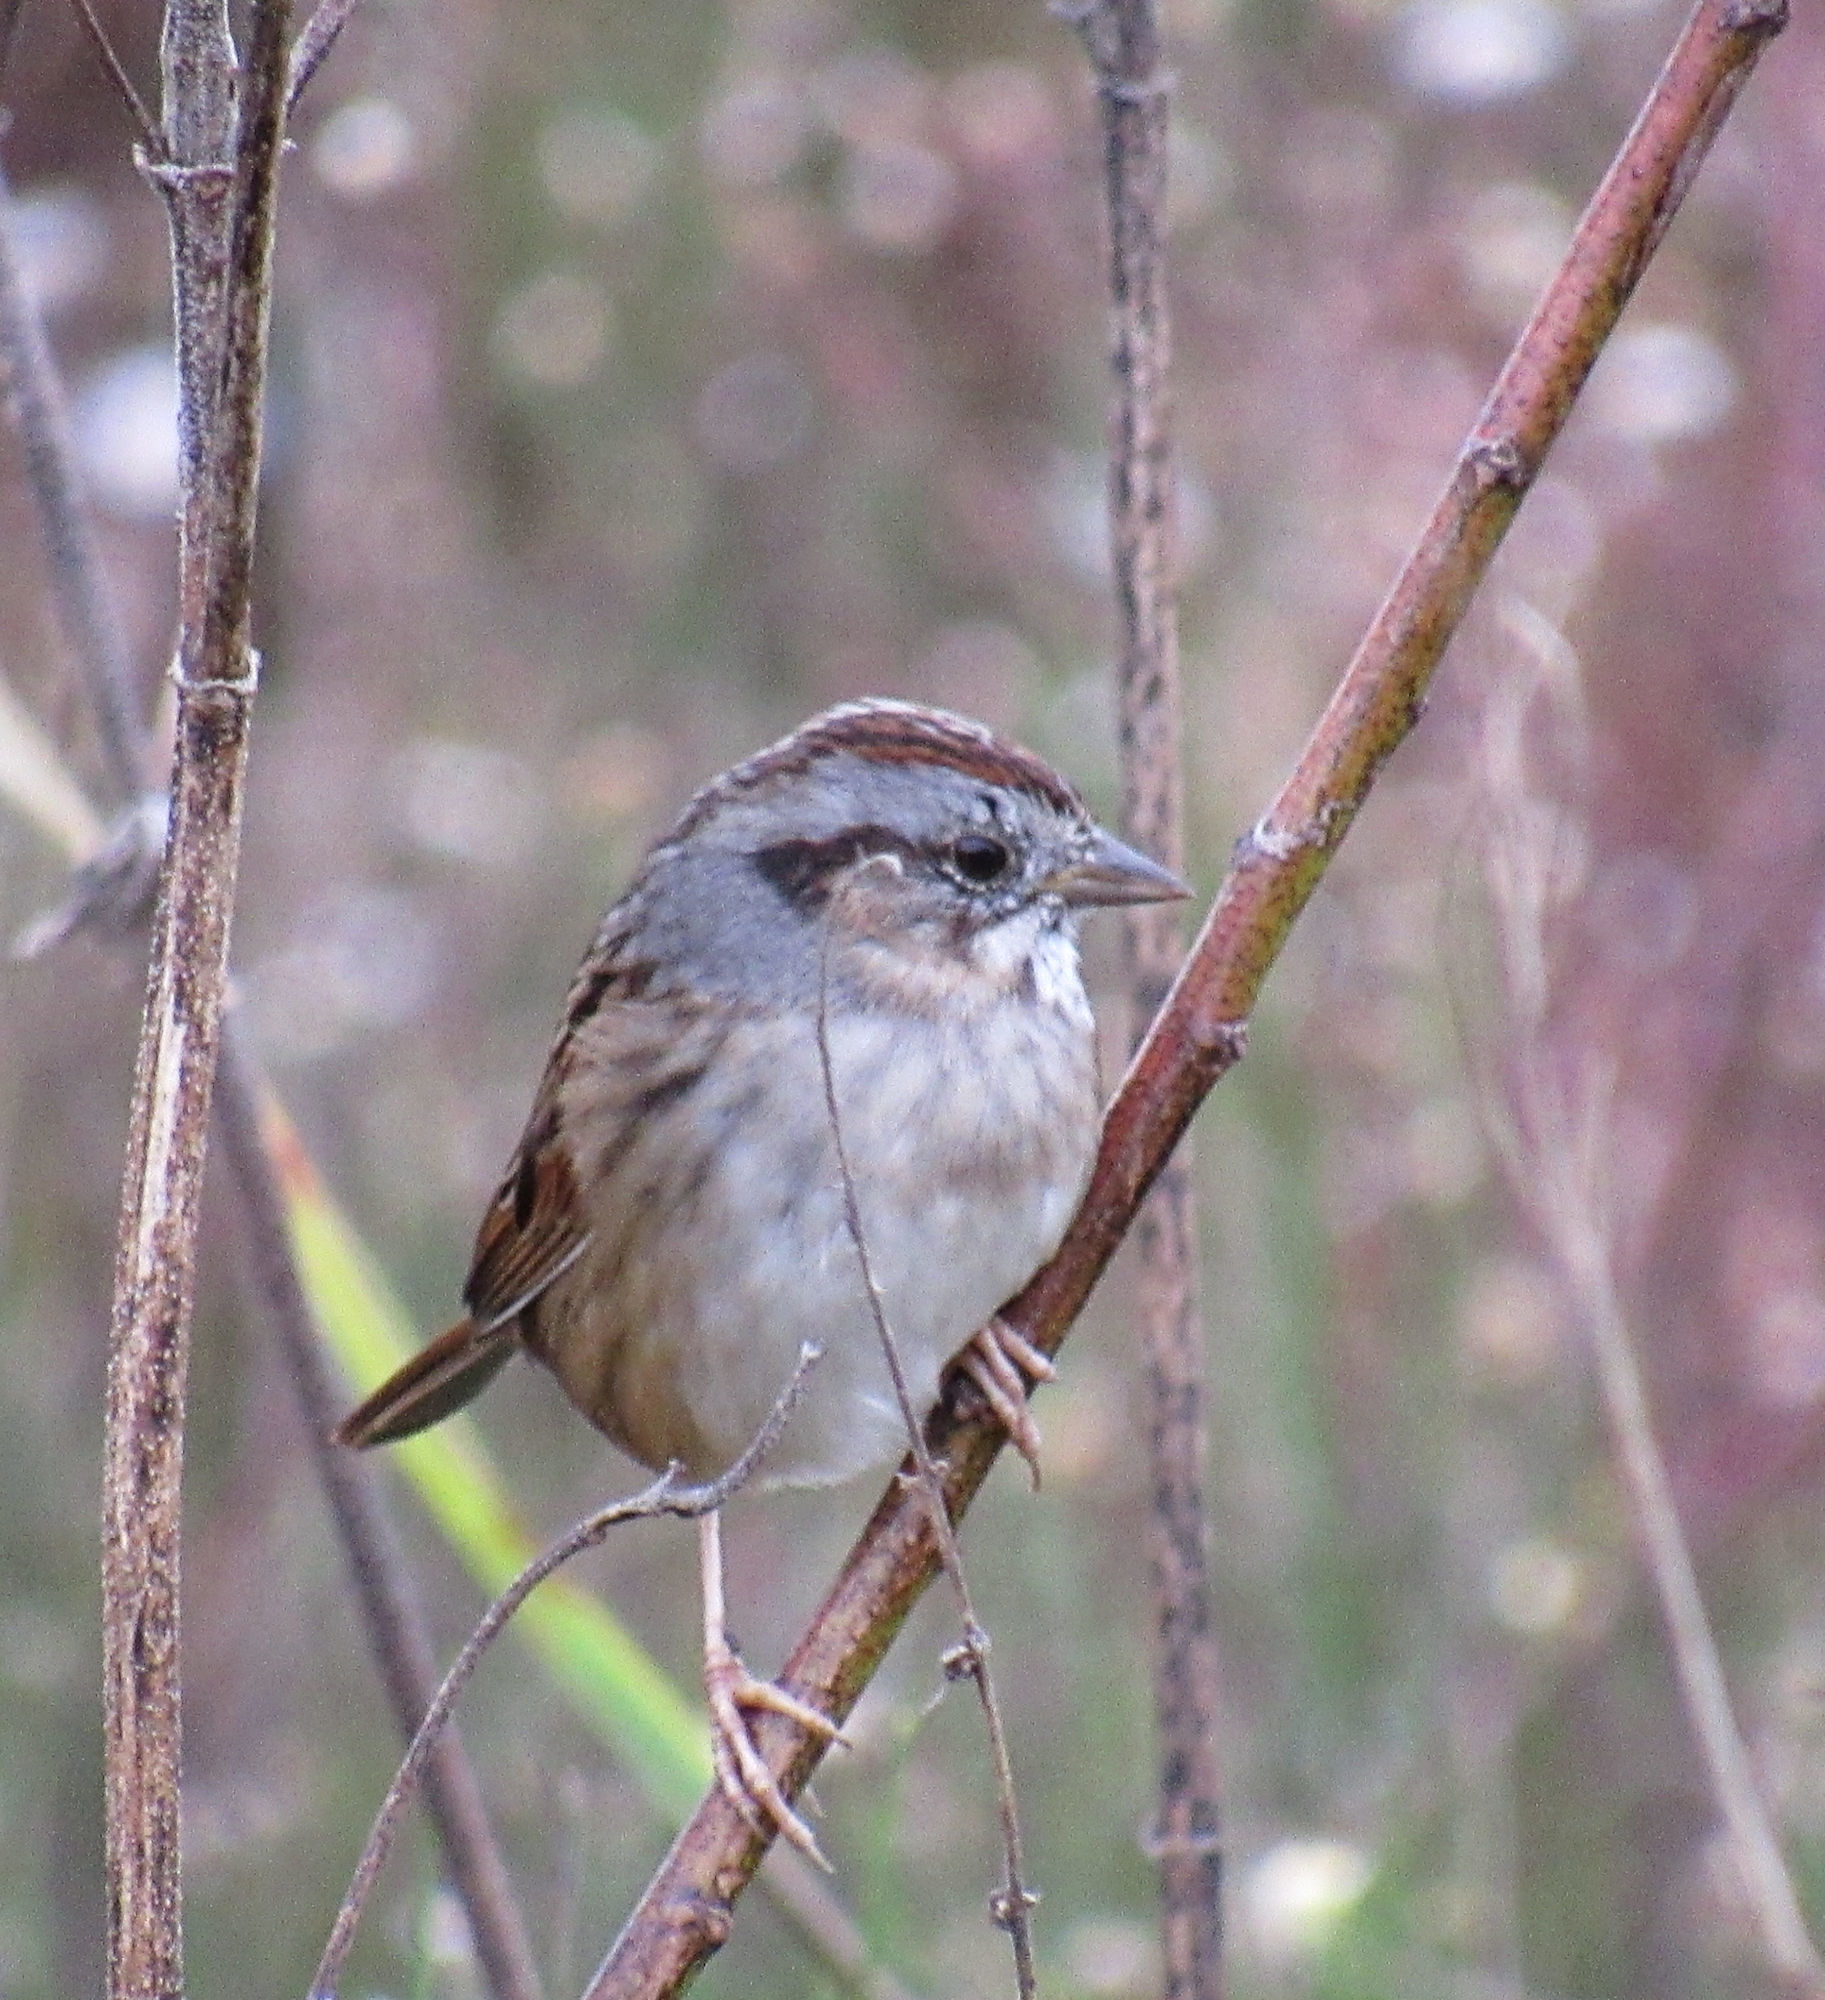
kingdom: Animalia
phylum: Chordata
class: Aves
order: Passeriformes
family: Passerellidae
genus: Melospiza
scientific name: Melospiza georgiana
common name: Swamp sparrow
